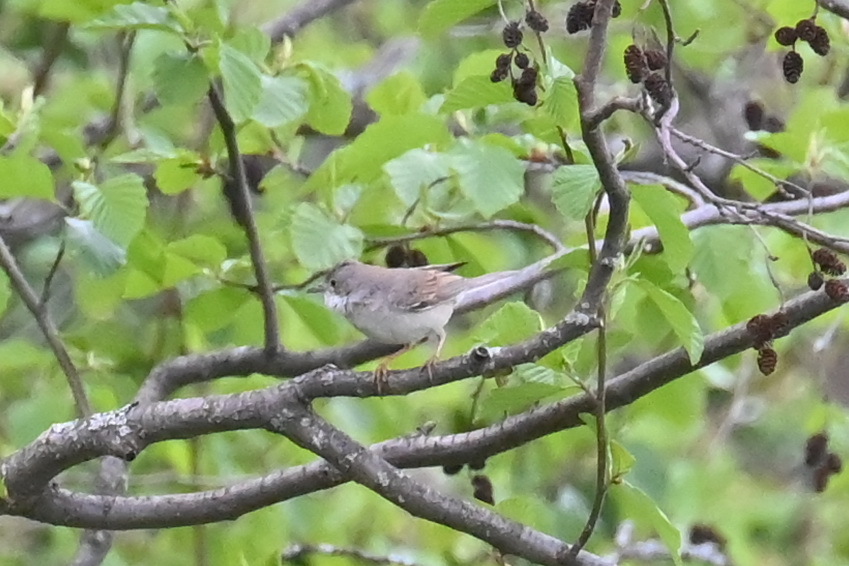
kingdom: Animalia
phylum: Chordata
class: Aves
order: Passeriformes
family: Sylviidae
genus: Sylvia
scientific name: Sylvia communis
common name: Common whitethroat
